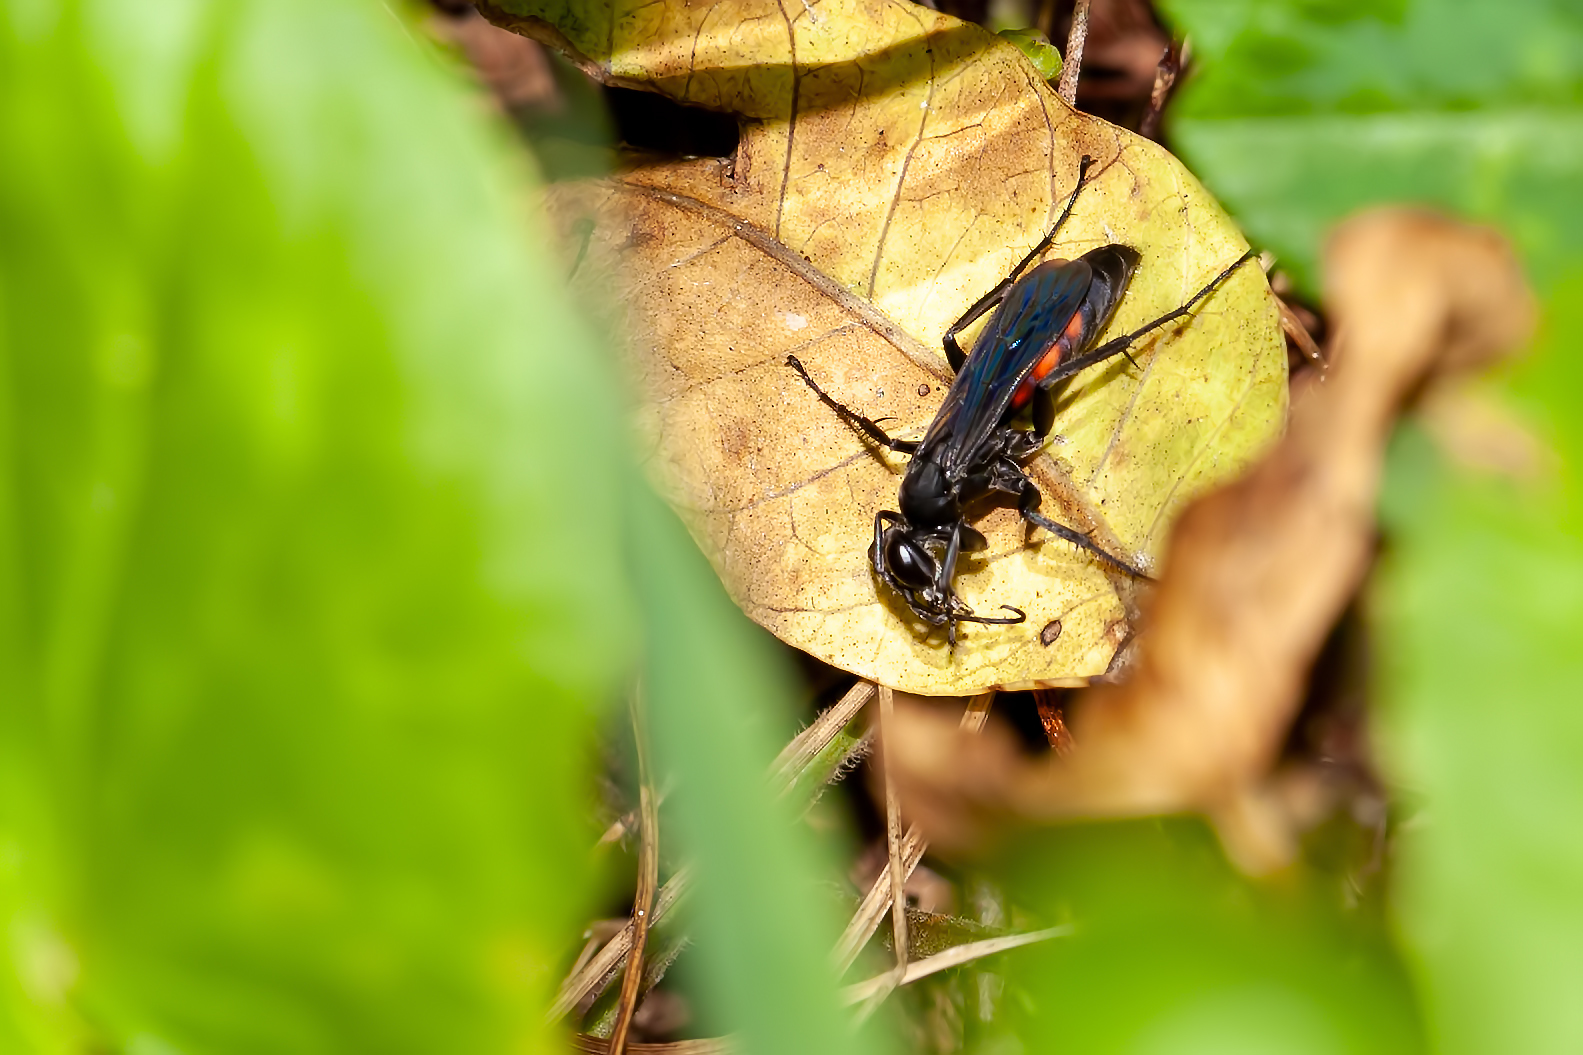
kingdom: Animalia
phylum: Arthropoda
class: Insecta
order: Hymenoptera
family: Pompilidae
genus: Anoplius
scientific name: Anoplius americanus
